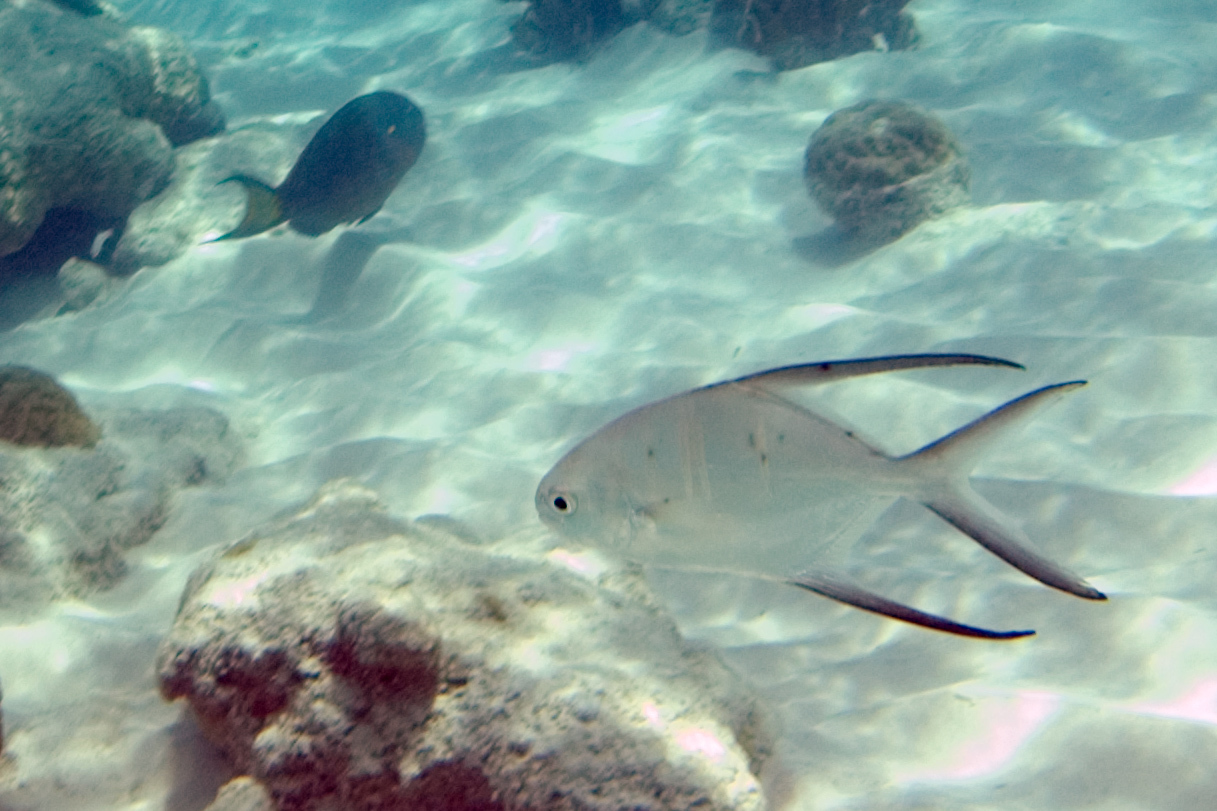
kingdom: Animalia
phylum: Chordata
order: Perciformes
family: Carangidae
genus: Trachinotus
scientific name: Trachinotus goodei
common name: Palometa
